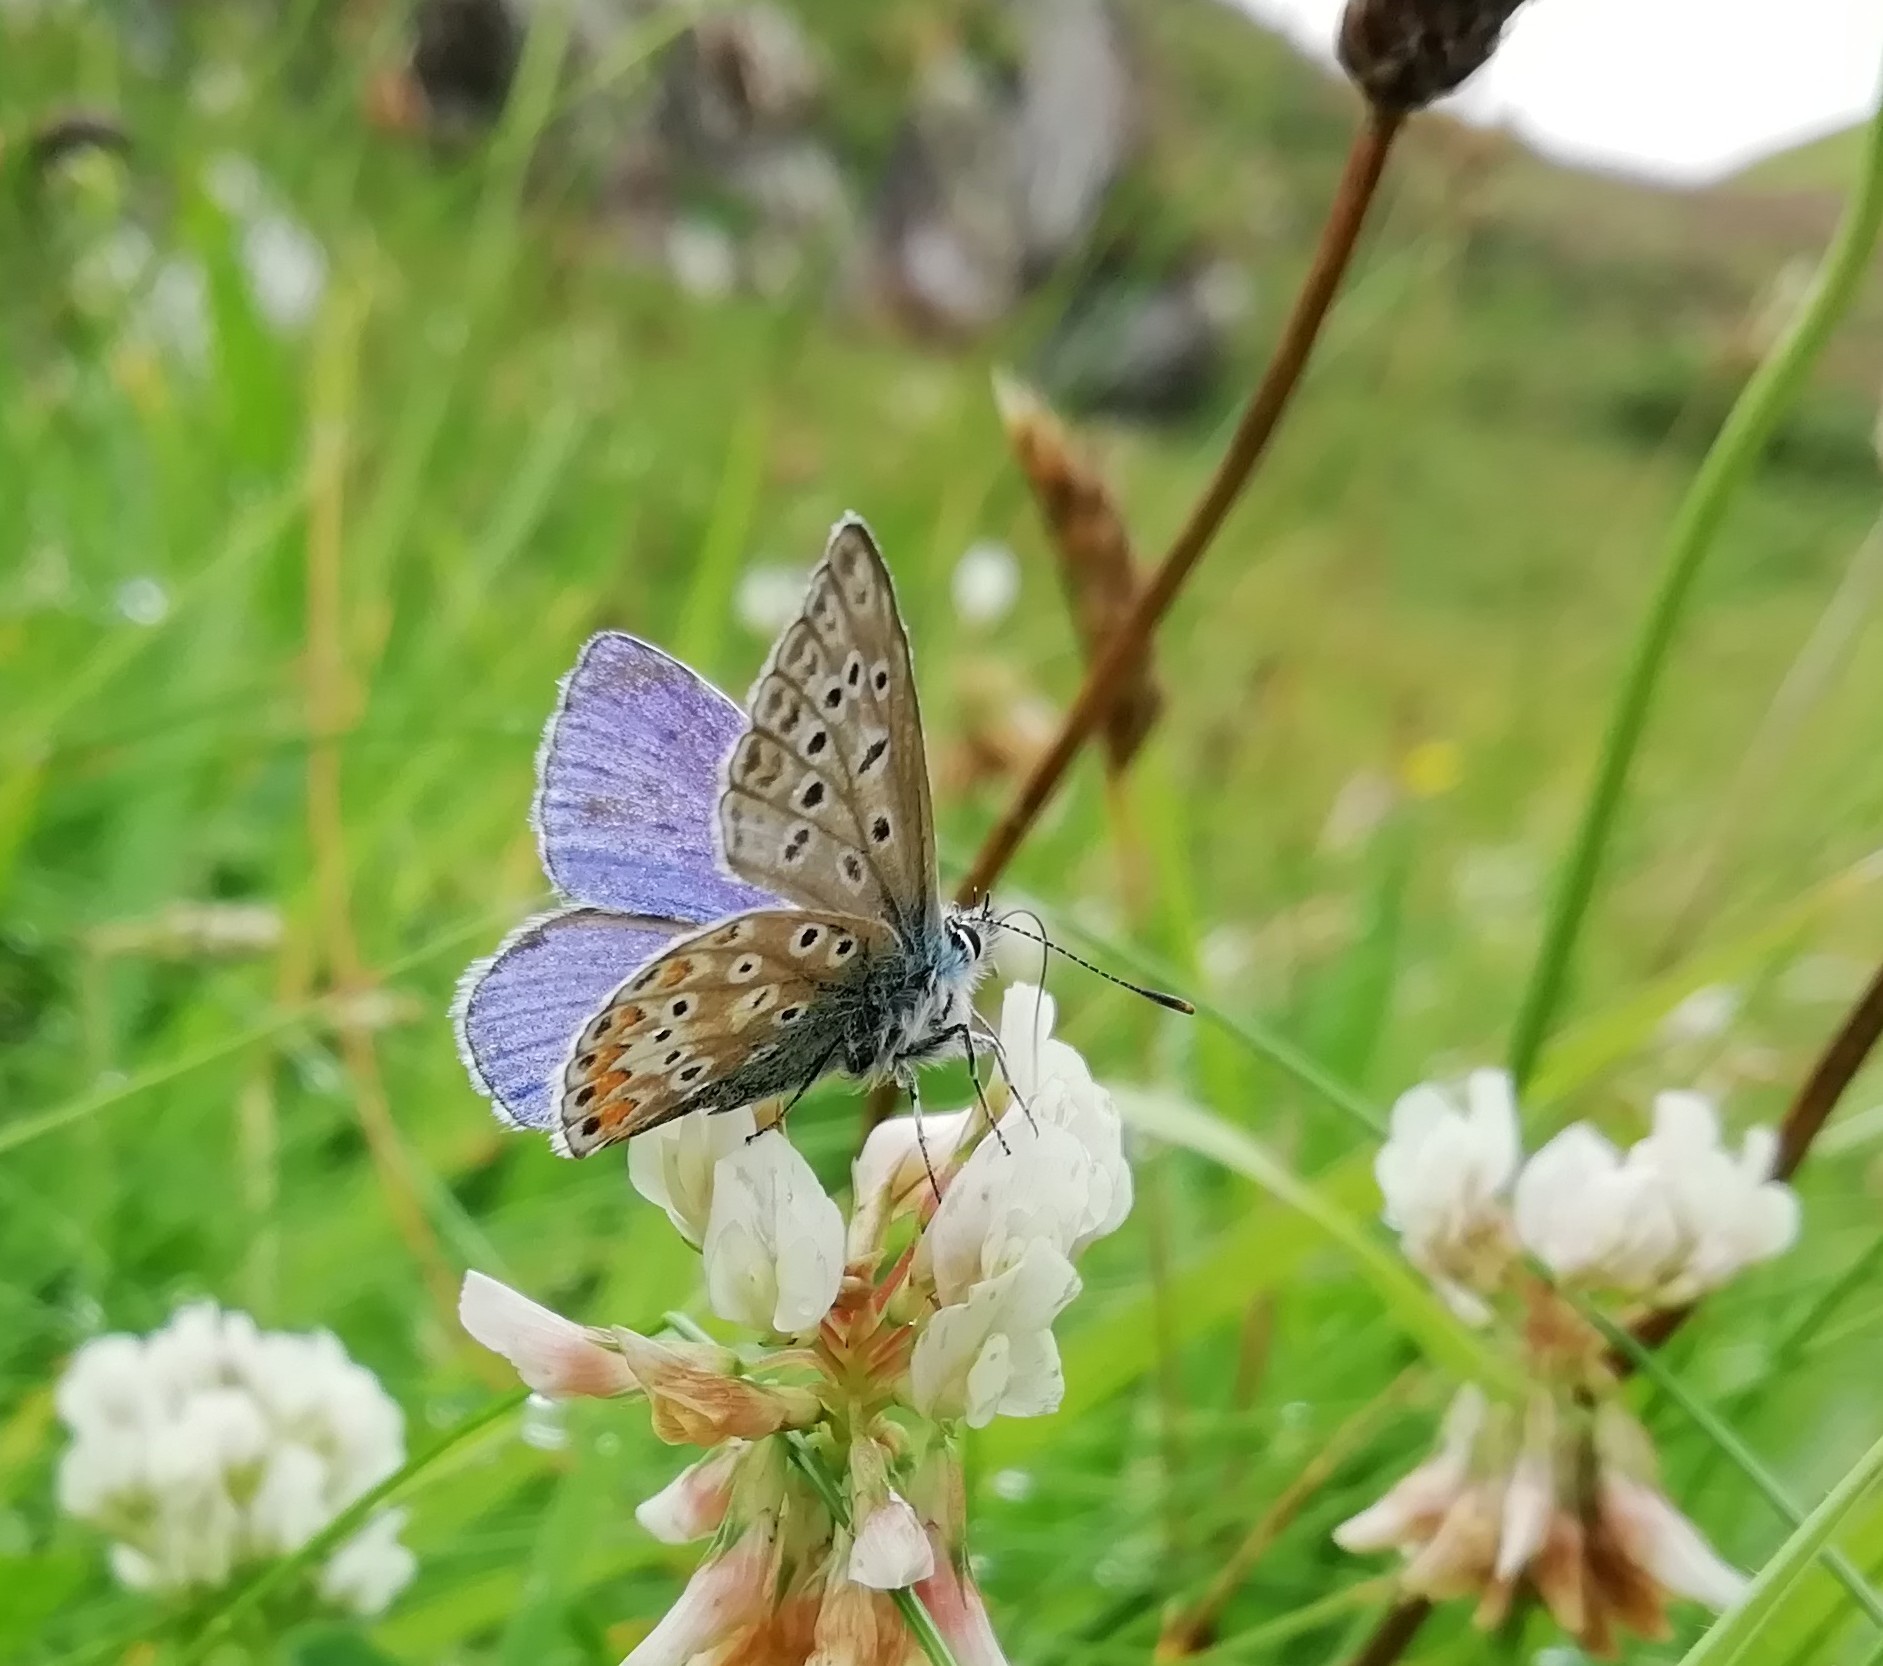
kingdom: Animalia
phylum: Arthropoda
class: Insecta
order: Lepidoptera
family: Lycaenidae
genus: Polyommatus
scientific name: Polyommatus icarus
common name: Common blue
